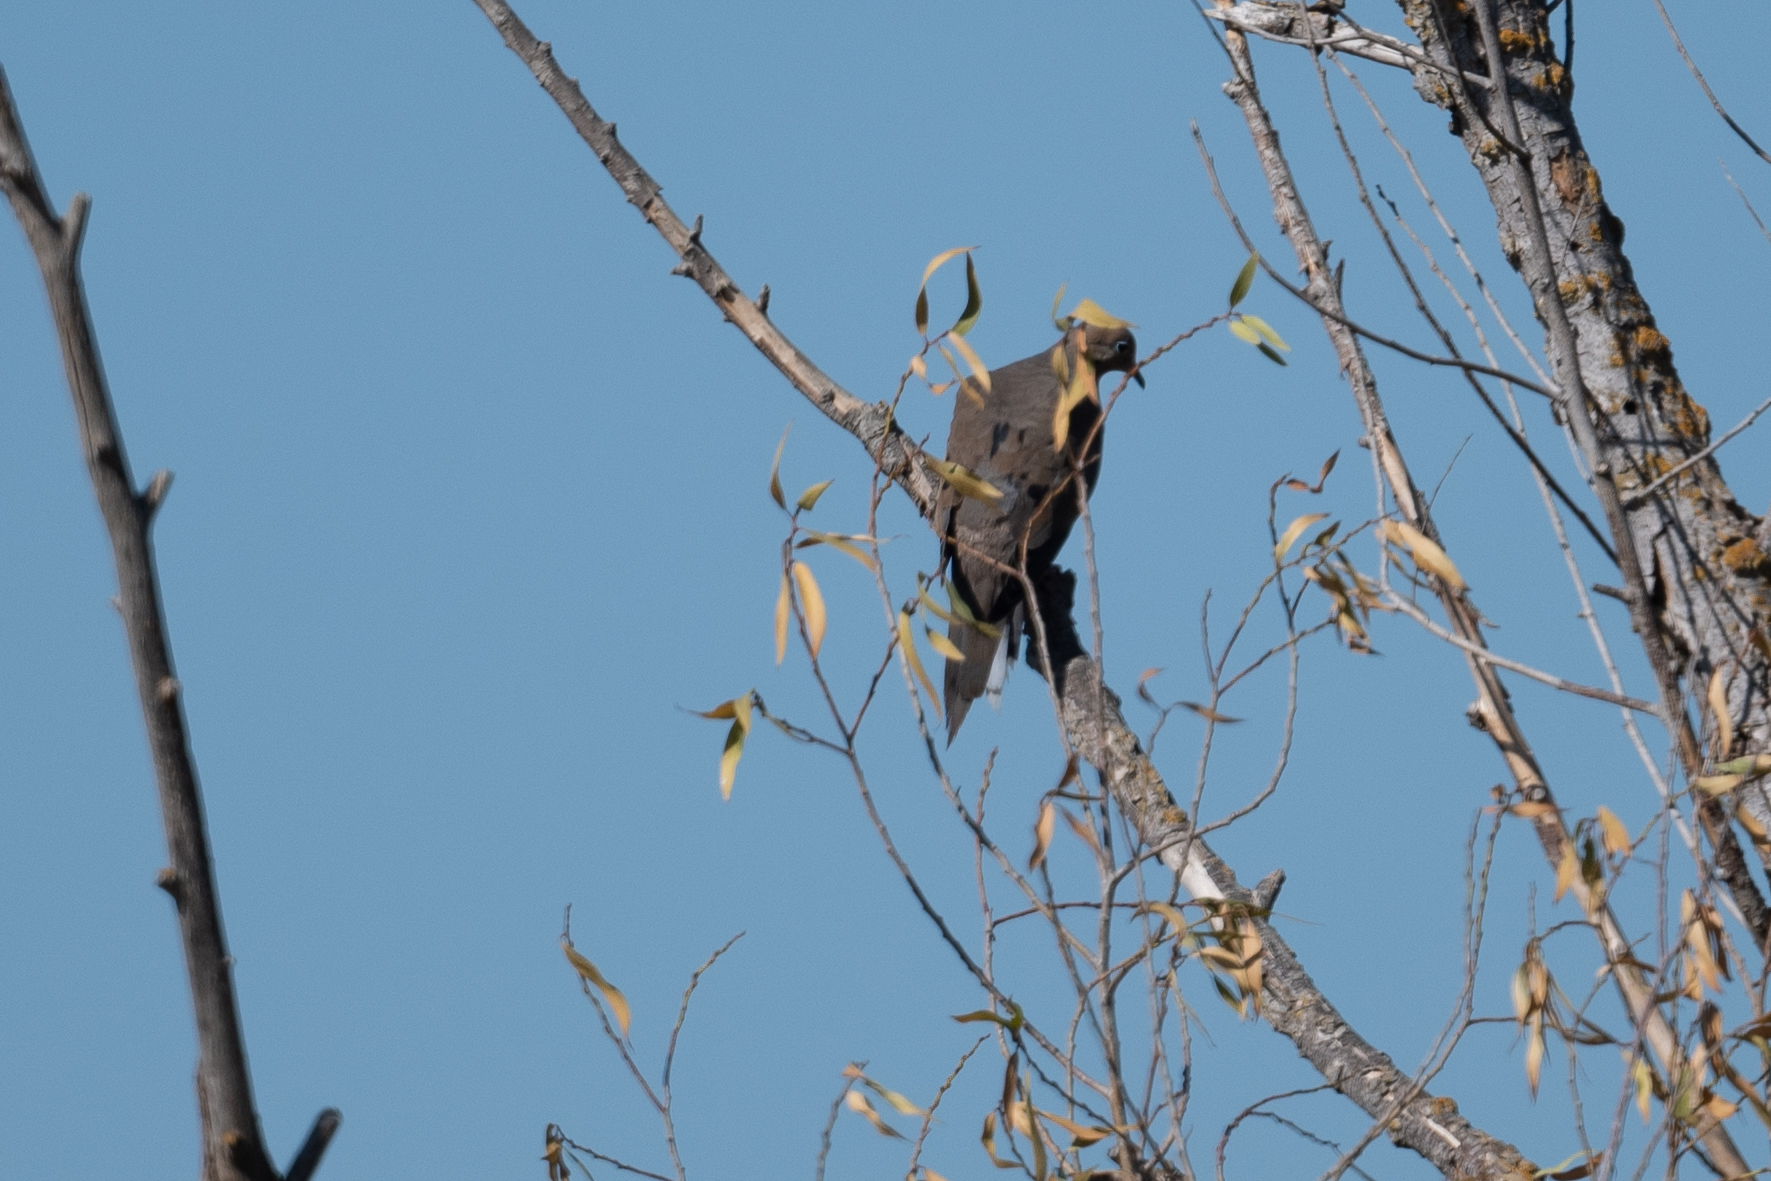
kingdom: Animalia
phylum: Chordata
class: Aves
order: Columbiformes
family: Columbidae
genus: Zenaida
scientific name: Zenaida macroura
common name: Mourning dove
